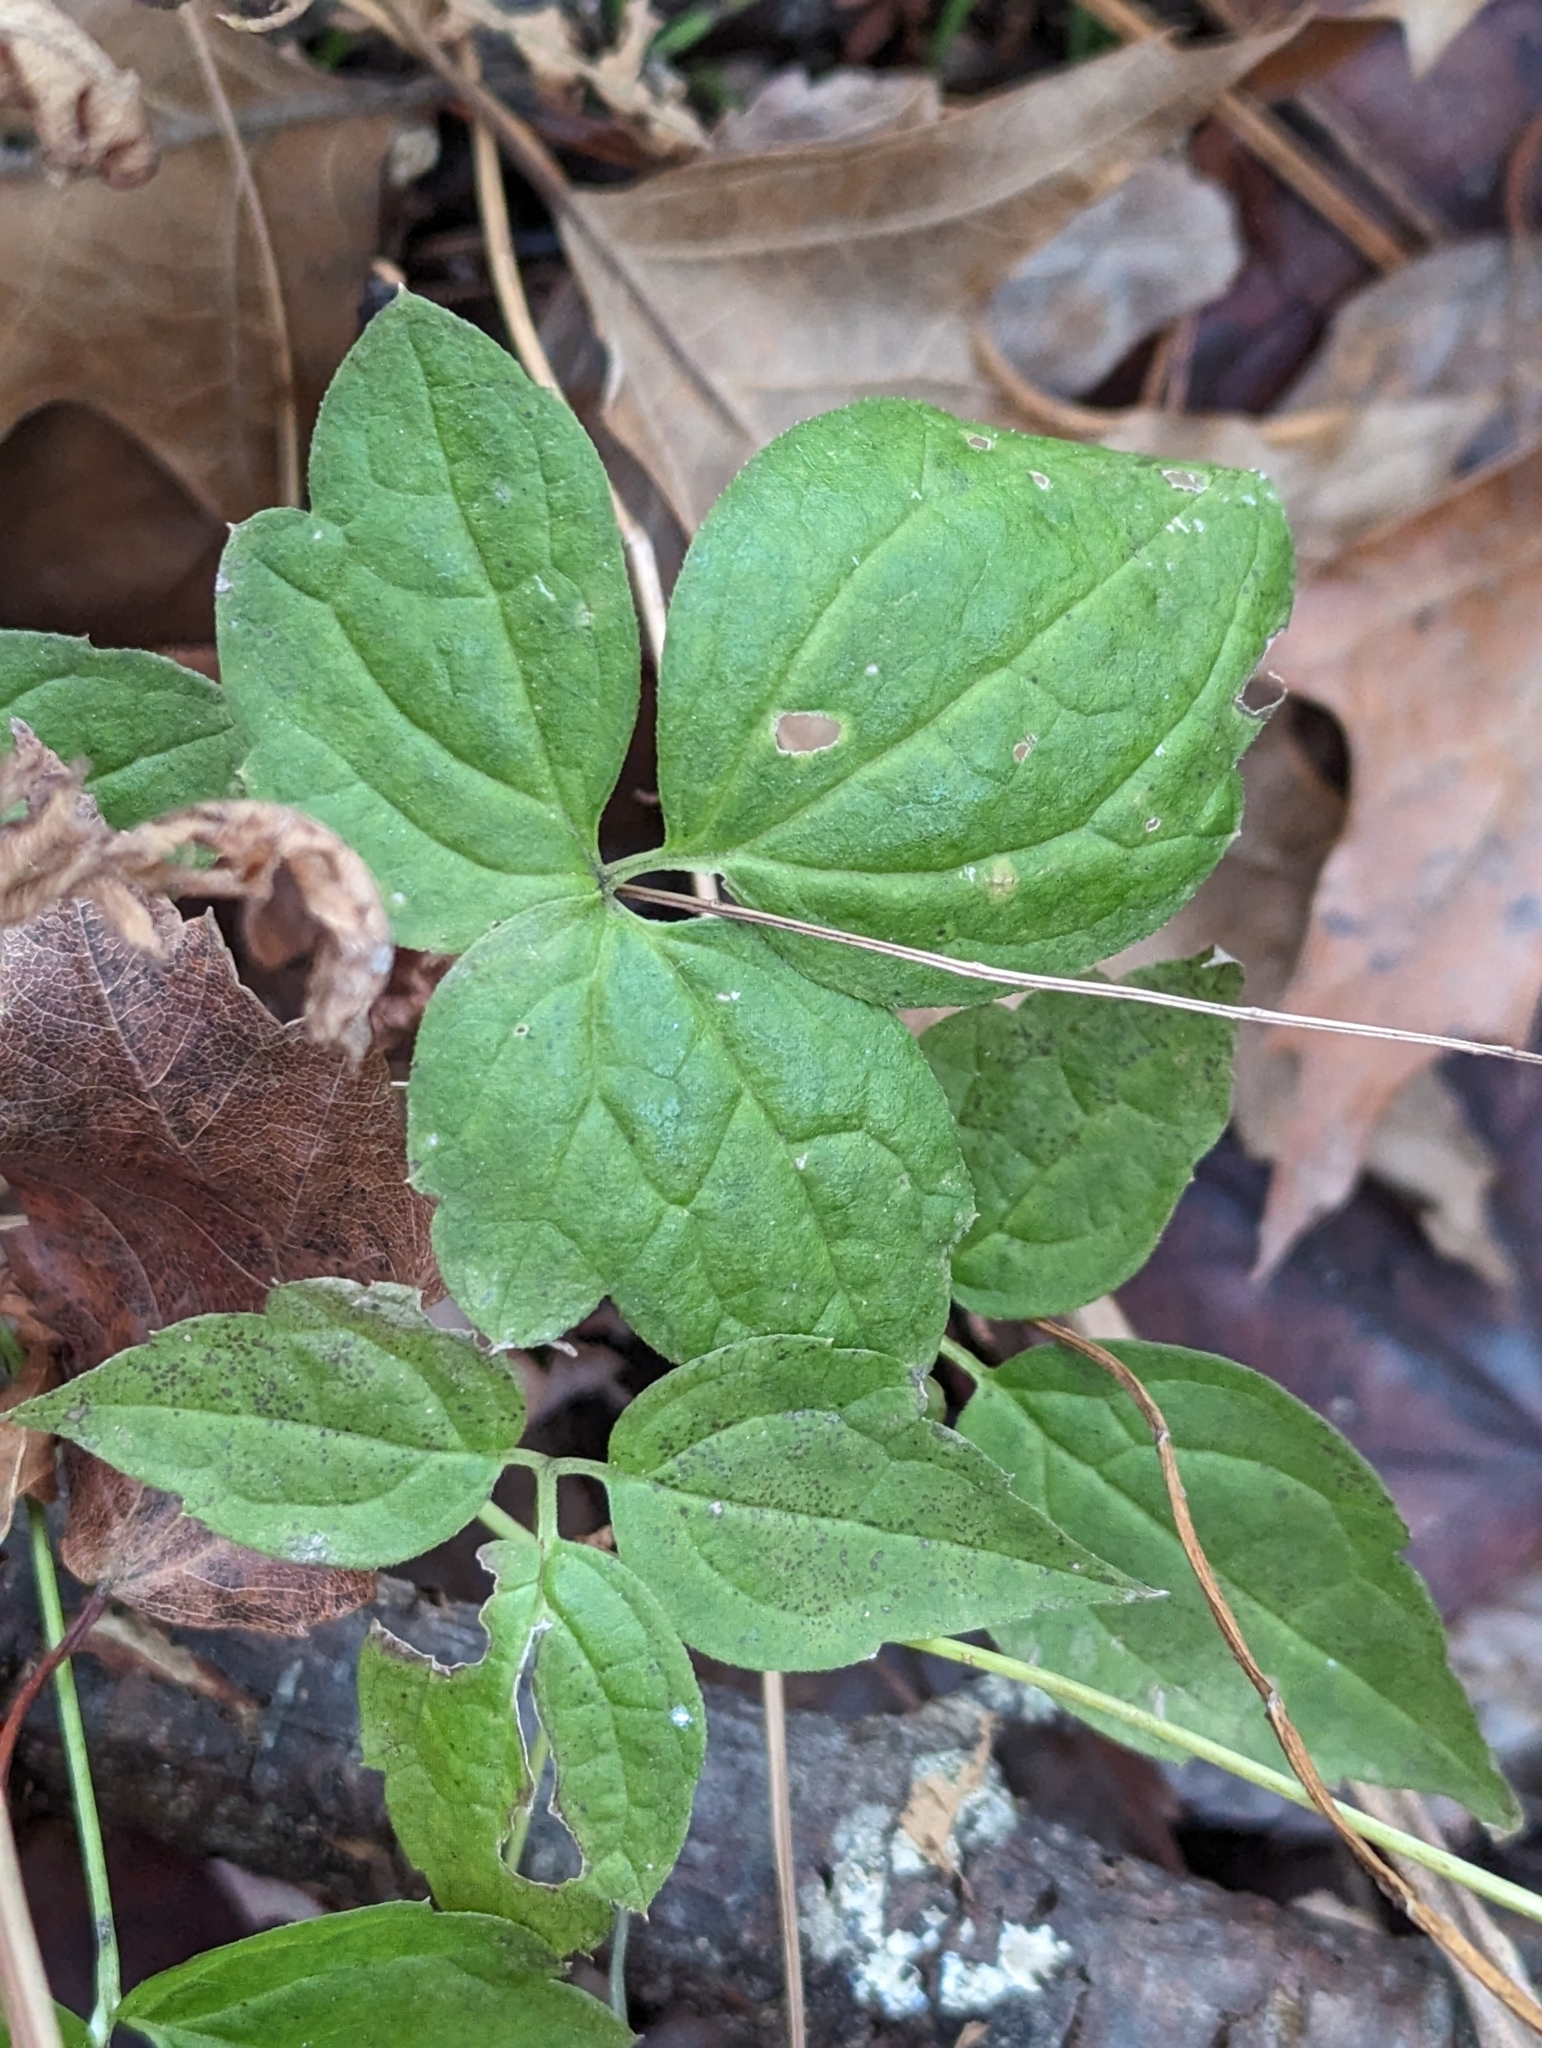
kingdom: Plantae
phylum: Tracheophyta
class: Magnoliopsida
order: Ranunculales
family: Ranunculaceae
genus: Clematis
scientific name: Clematis virginiana
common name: Virgin's-bower
